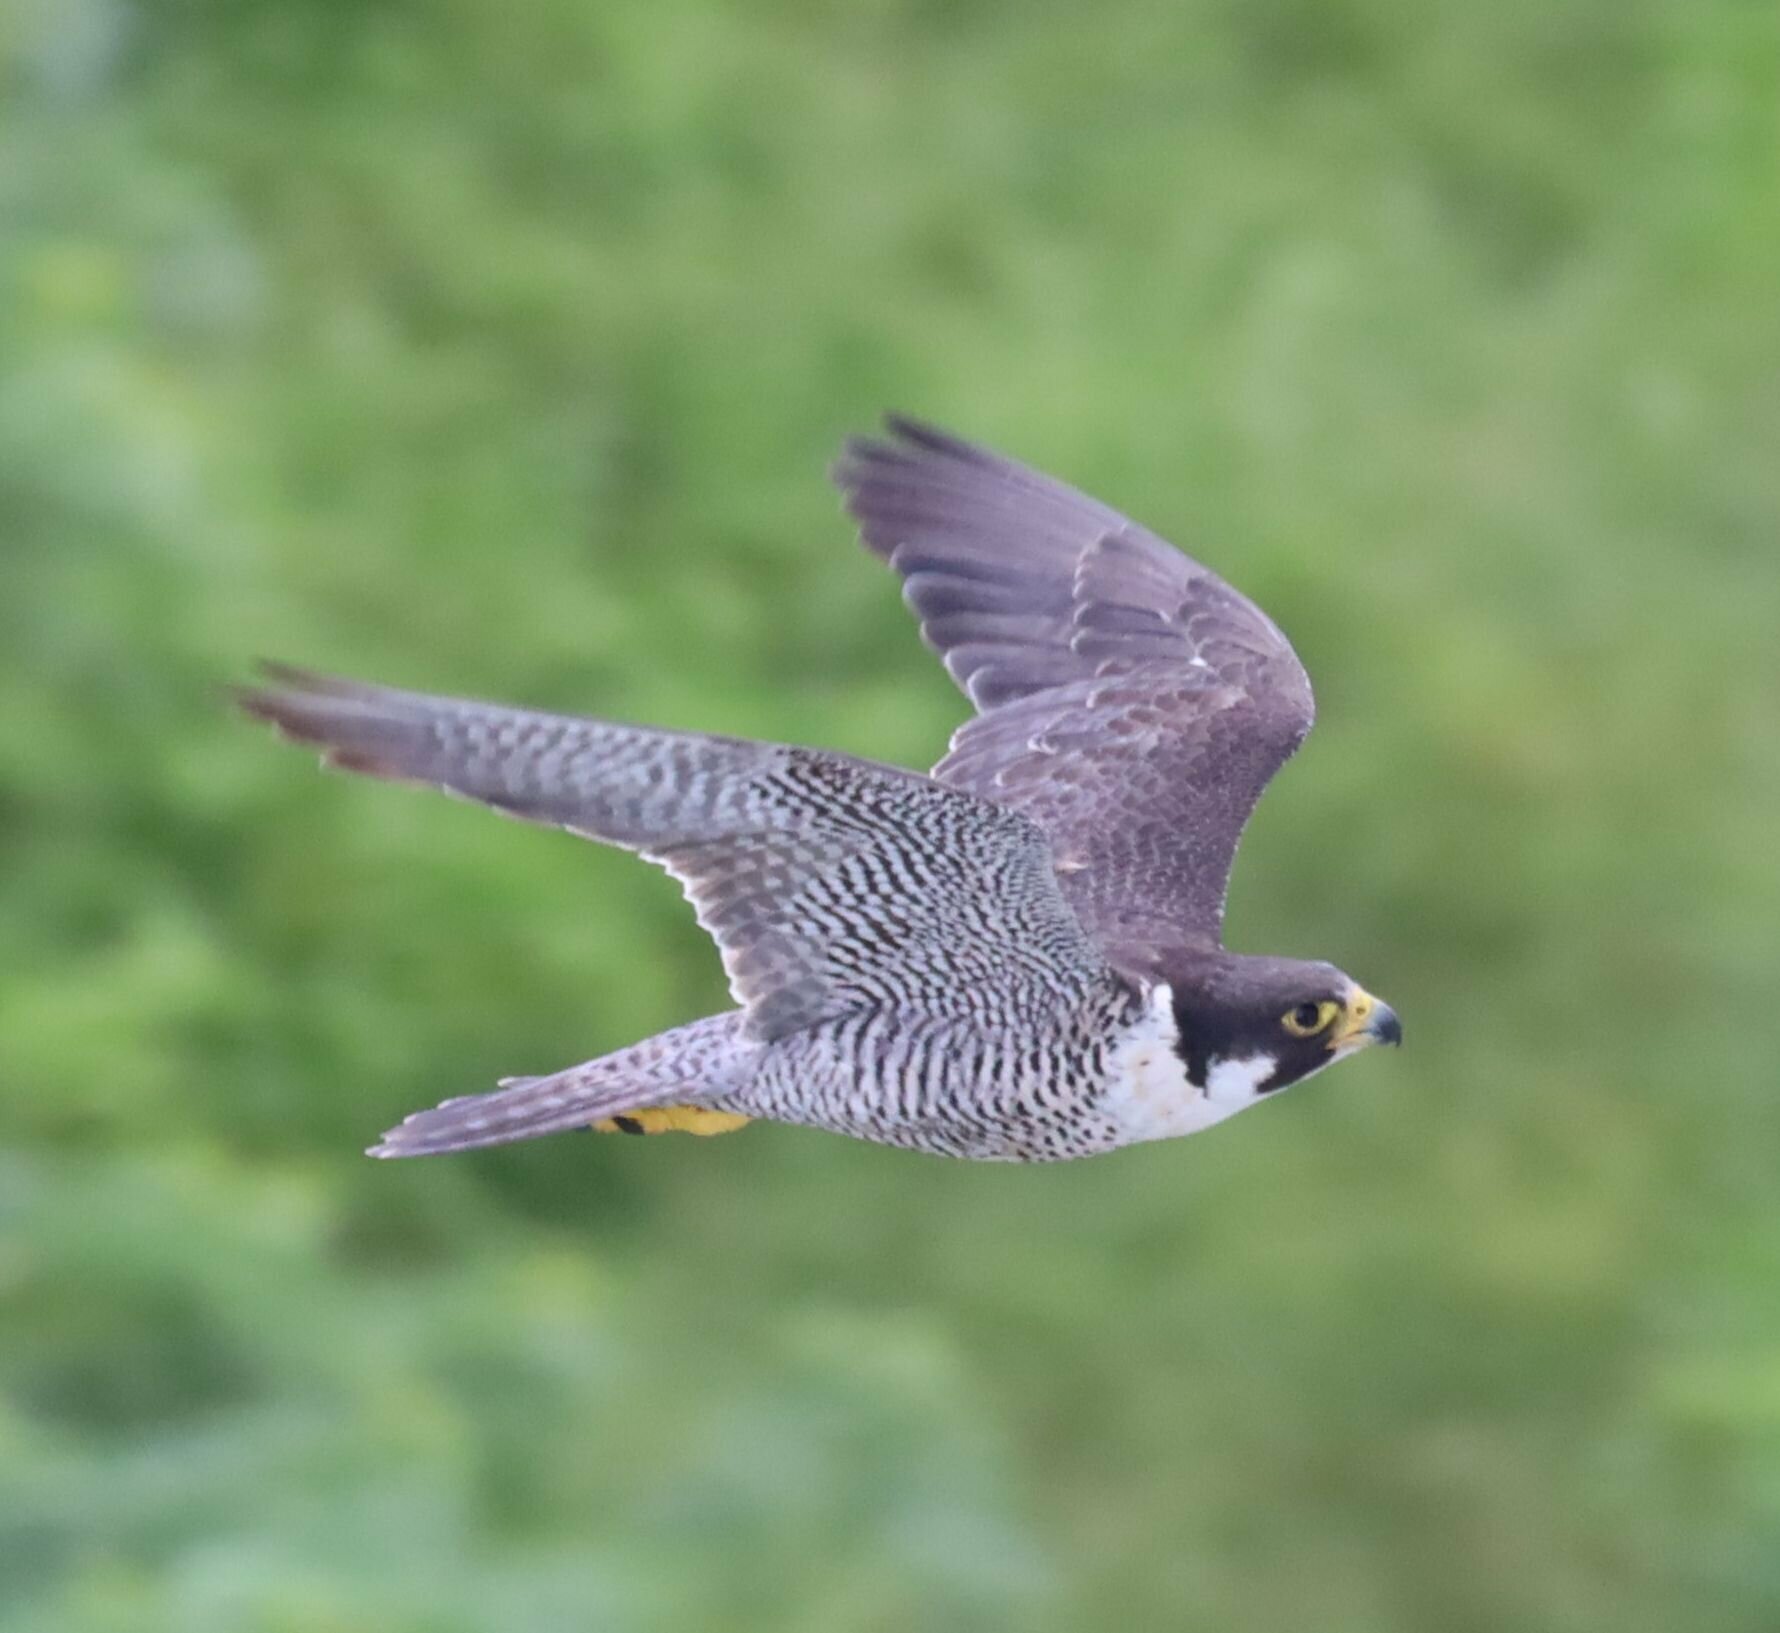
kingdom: Animalia
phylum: Chordata
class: Aves
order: Falconiformes
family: Falconidae
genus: Falco
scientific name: Falco peregrinus
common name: Peregrine falcon
